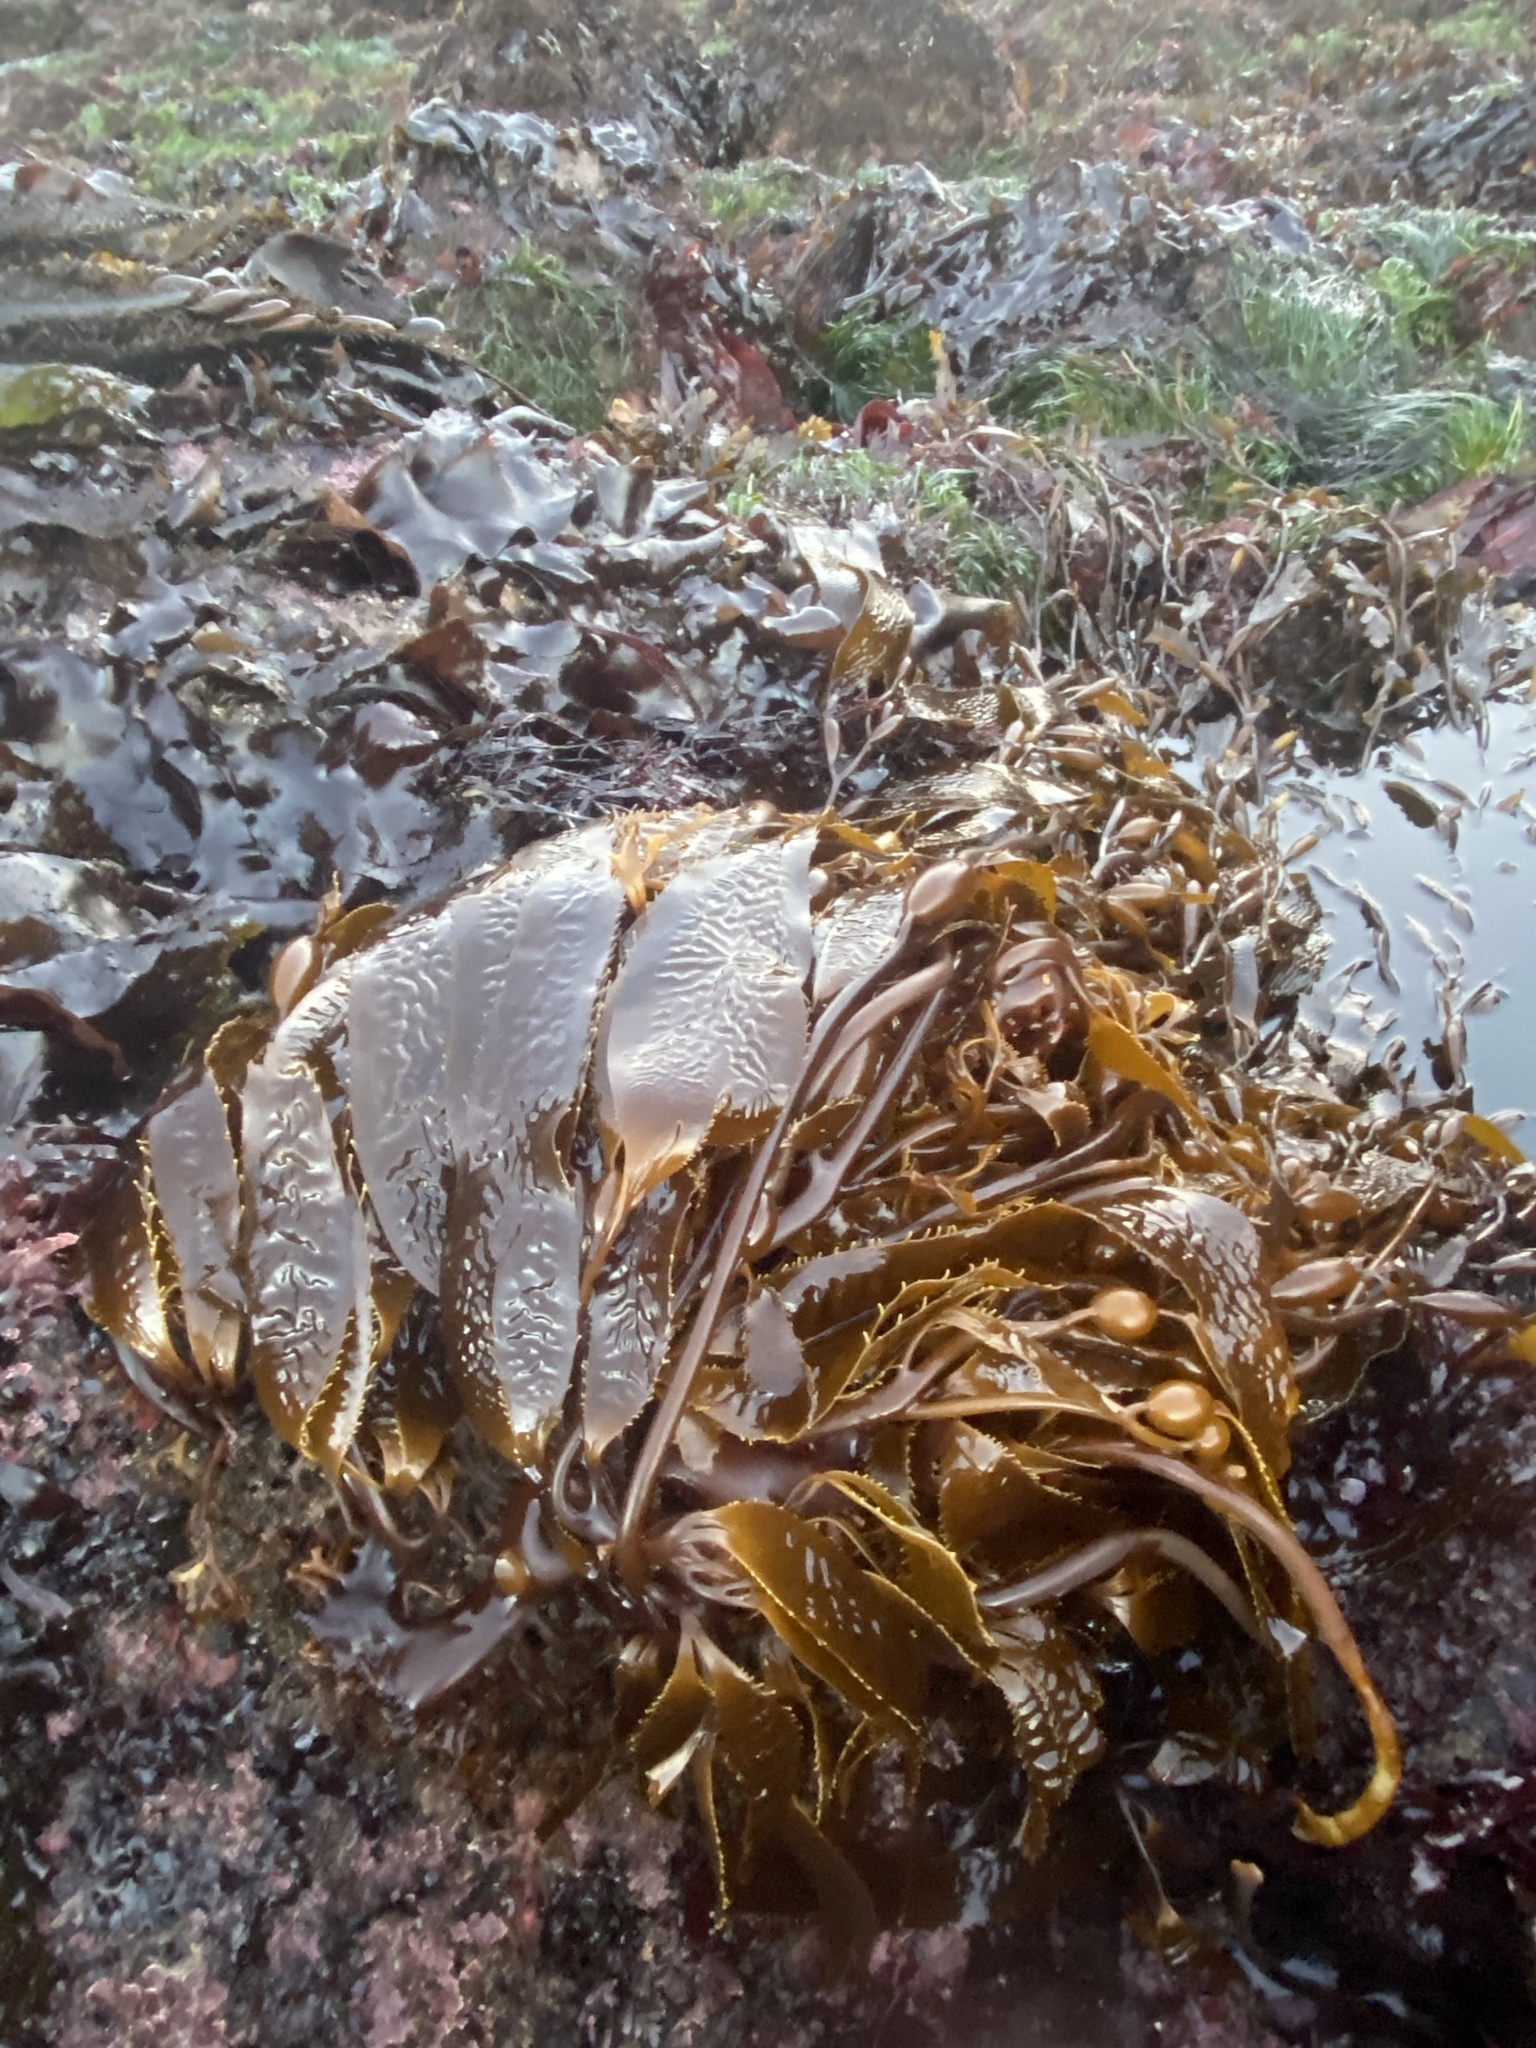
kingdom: Chromista
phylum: Ochrophyta
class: Phaeophyceae
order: Laminariales
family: Laminariaceae
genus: Macrocystis
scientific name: Macrocystis pyrifera
